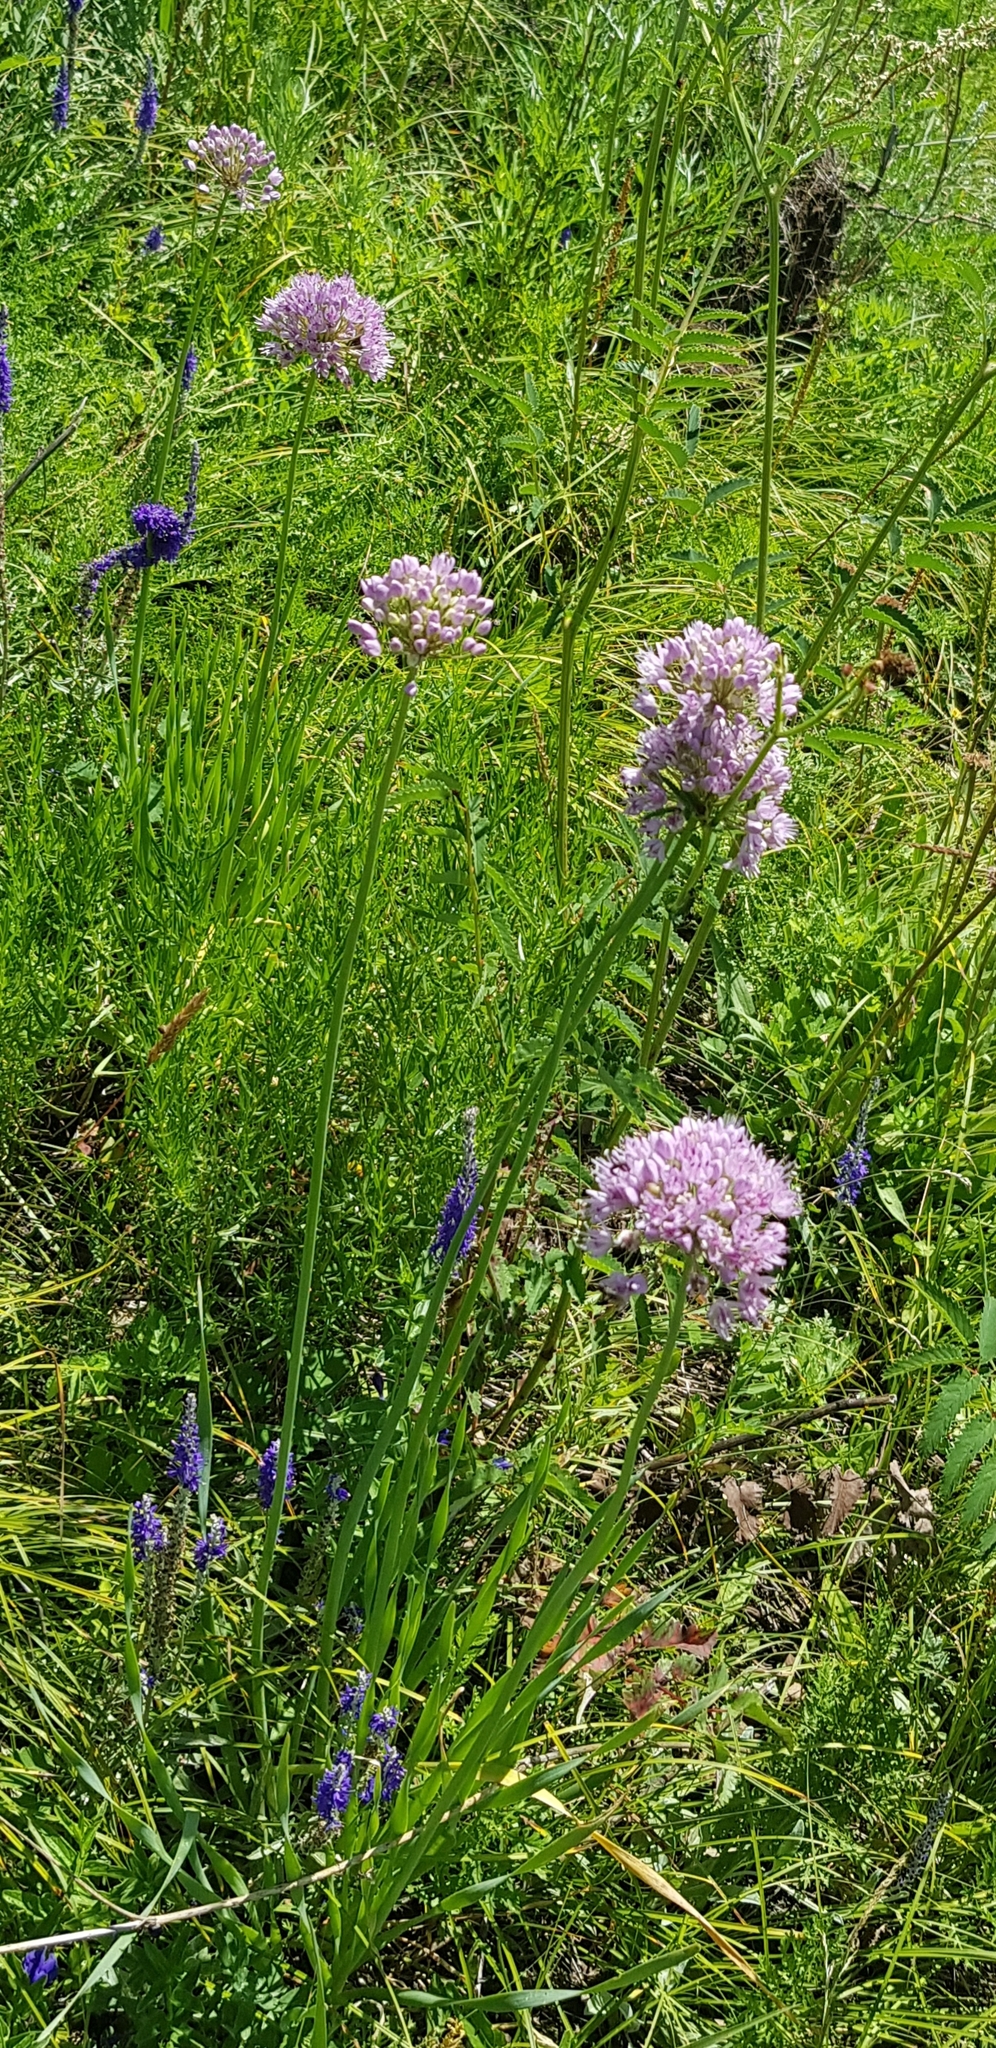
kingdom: Plantae
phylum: Tracheophyta
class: Liliopsida
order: Asparagales
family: Amaryllidaceae
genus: Allium
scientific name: Allium senescens
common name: German garlic
